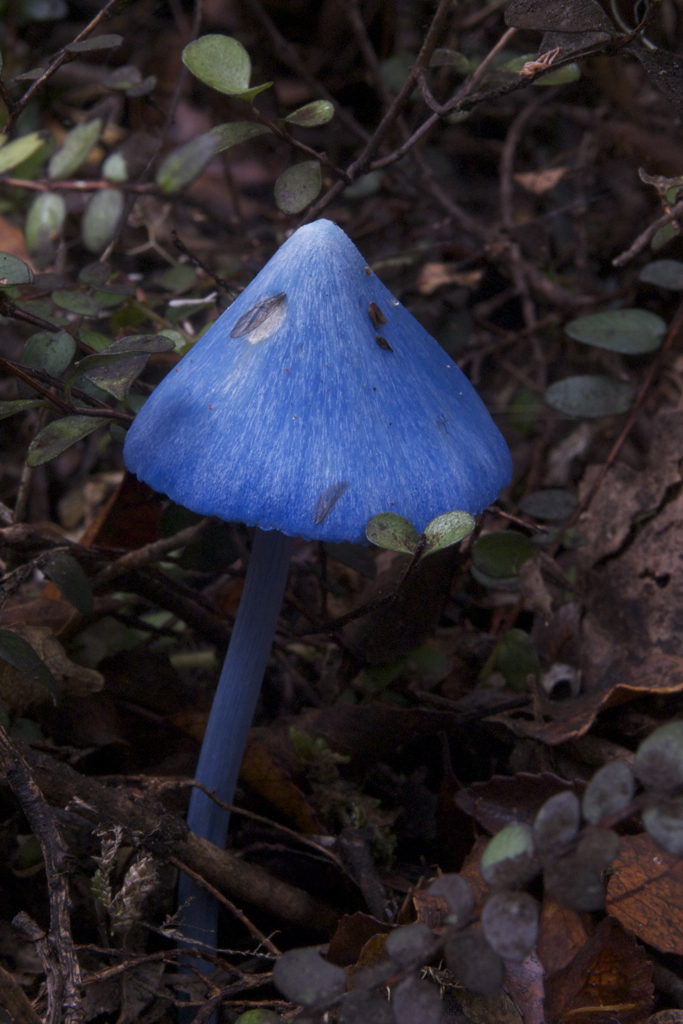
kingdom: Fungi
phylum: Basidiomycota
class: Agaricomycetes
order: Agaricales
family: Entolomataceae
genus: Entoloma
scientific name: Entoloma hochstetteri
